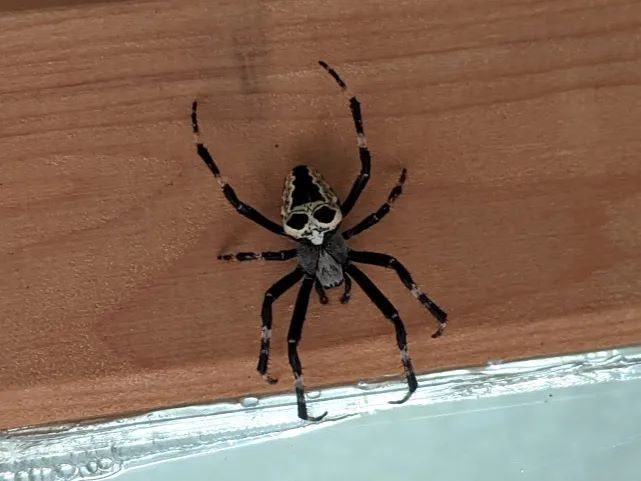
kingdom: Animalia
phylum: Arthropoda
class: Arachnida
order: Araneae
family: Araneidae
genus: Araneus
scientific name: Araneus nordmanni
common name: Nordmann's orbweaver
